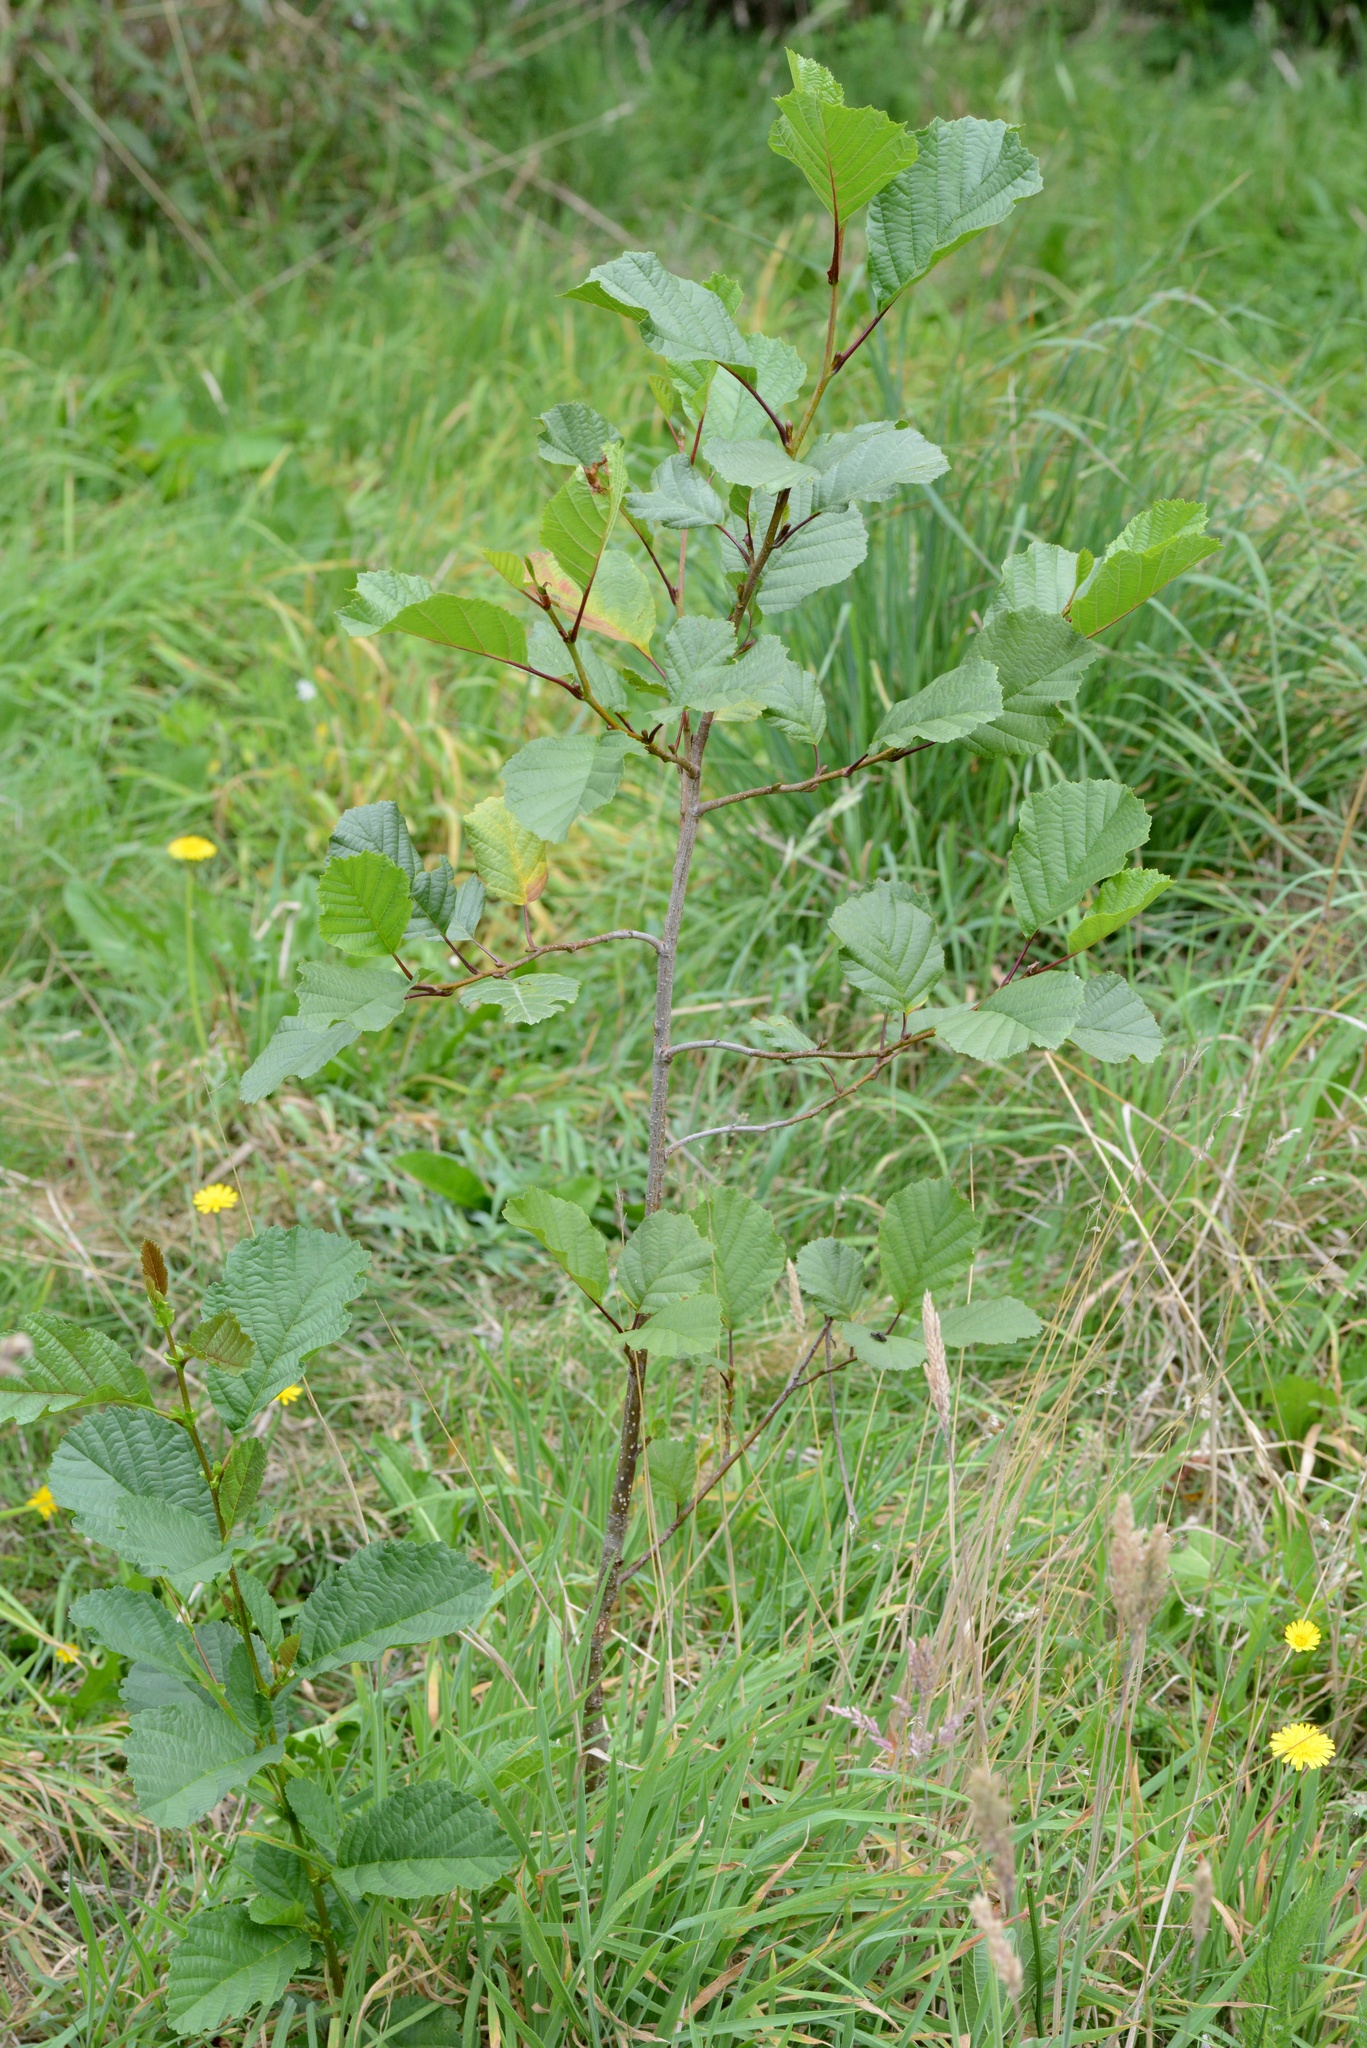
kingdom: Plantae
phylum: Tracheophyta
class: Magnoliopsida
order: Fagales
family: Betulaceae
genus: Alnus
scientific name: Alnus glutinosa
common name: Black alder
